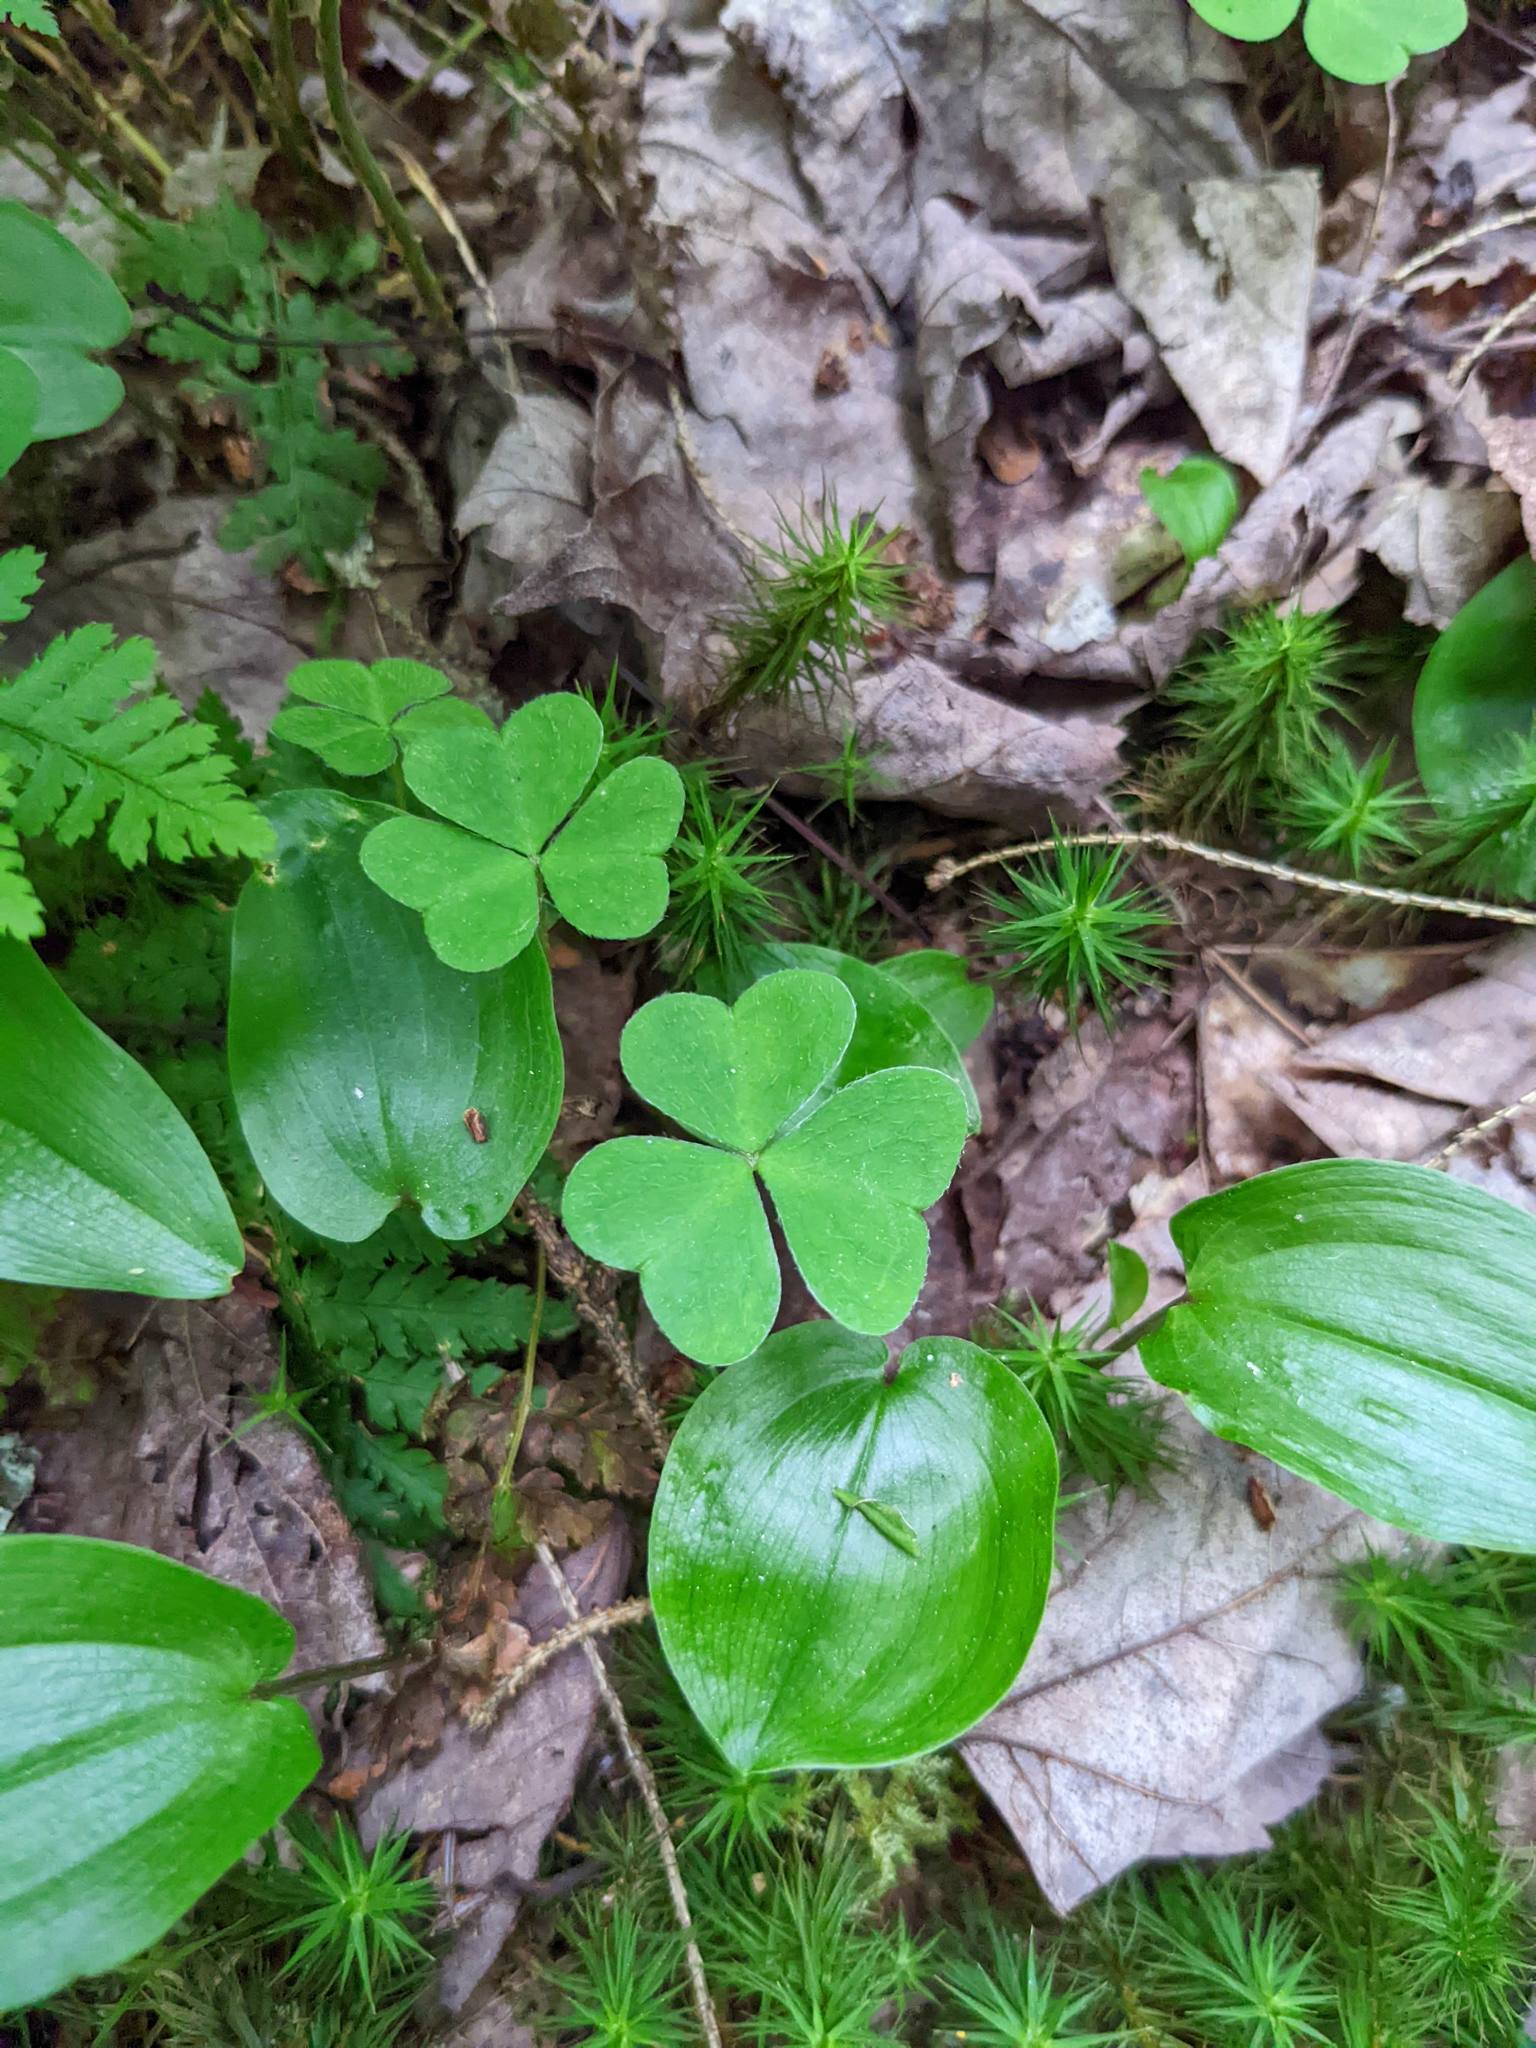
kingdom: Plantae
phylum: Tracheophyta
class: Magnoliopsida
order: Oxalidales
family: Oxalidaceae
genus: Oxalis
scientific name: Oxalis montana
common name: American wood-sorrel
